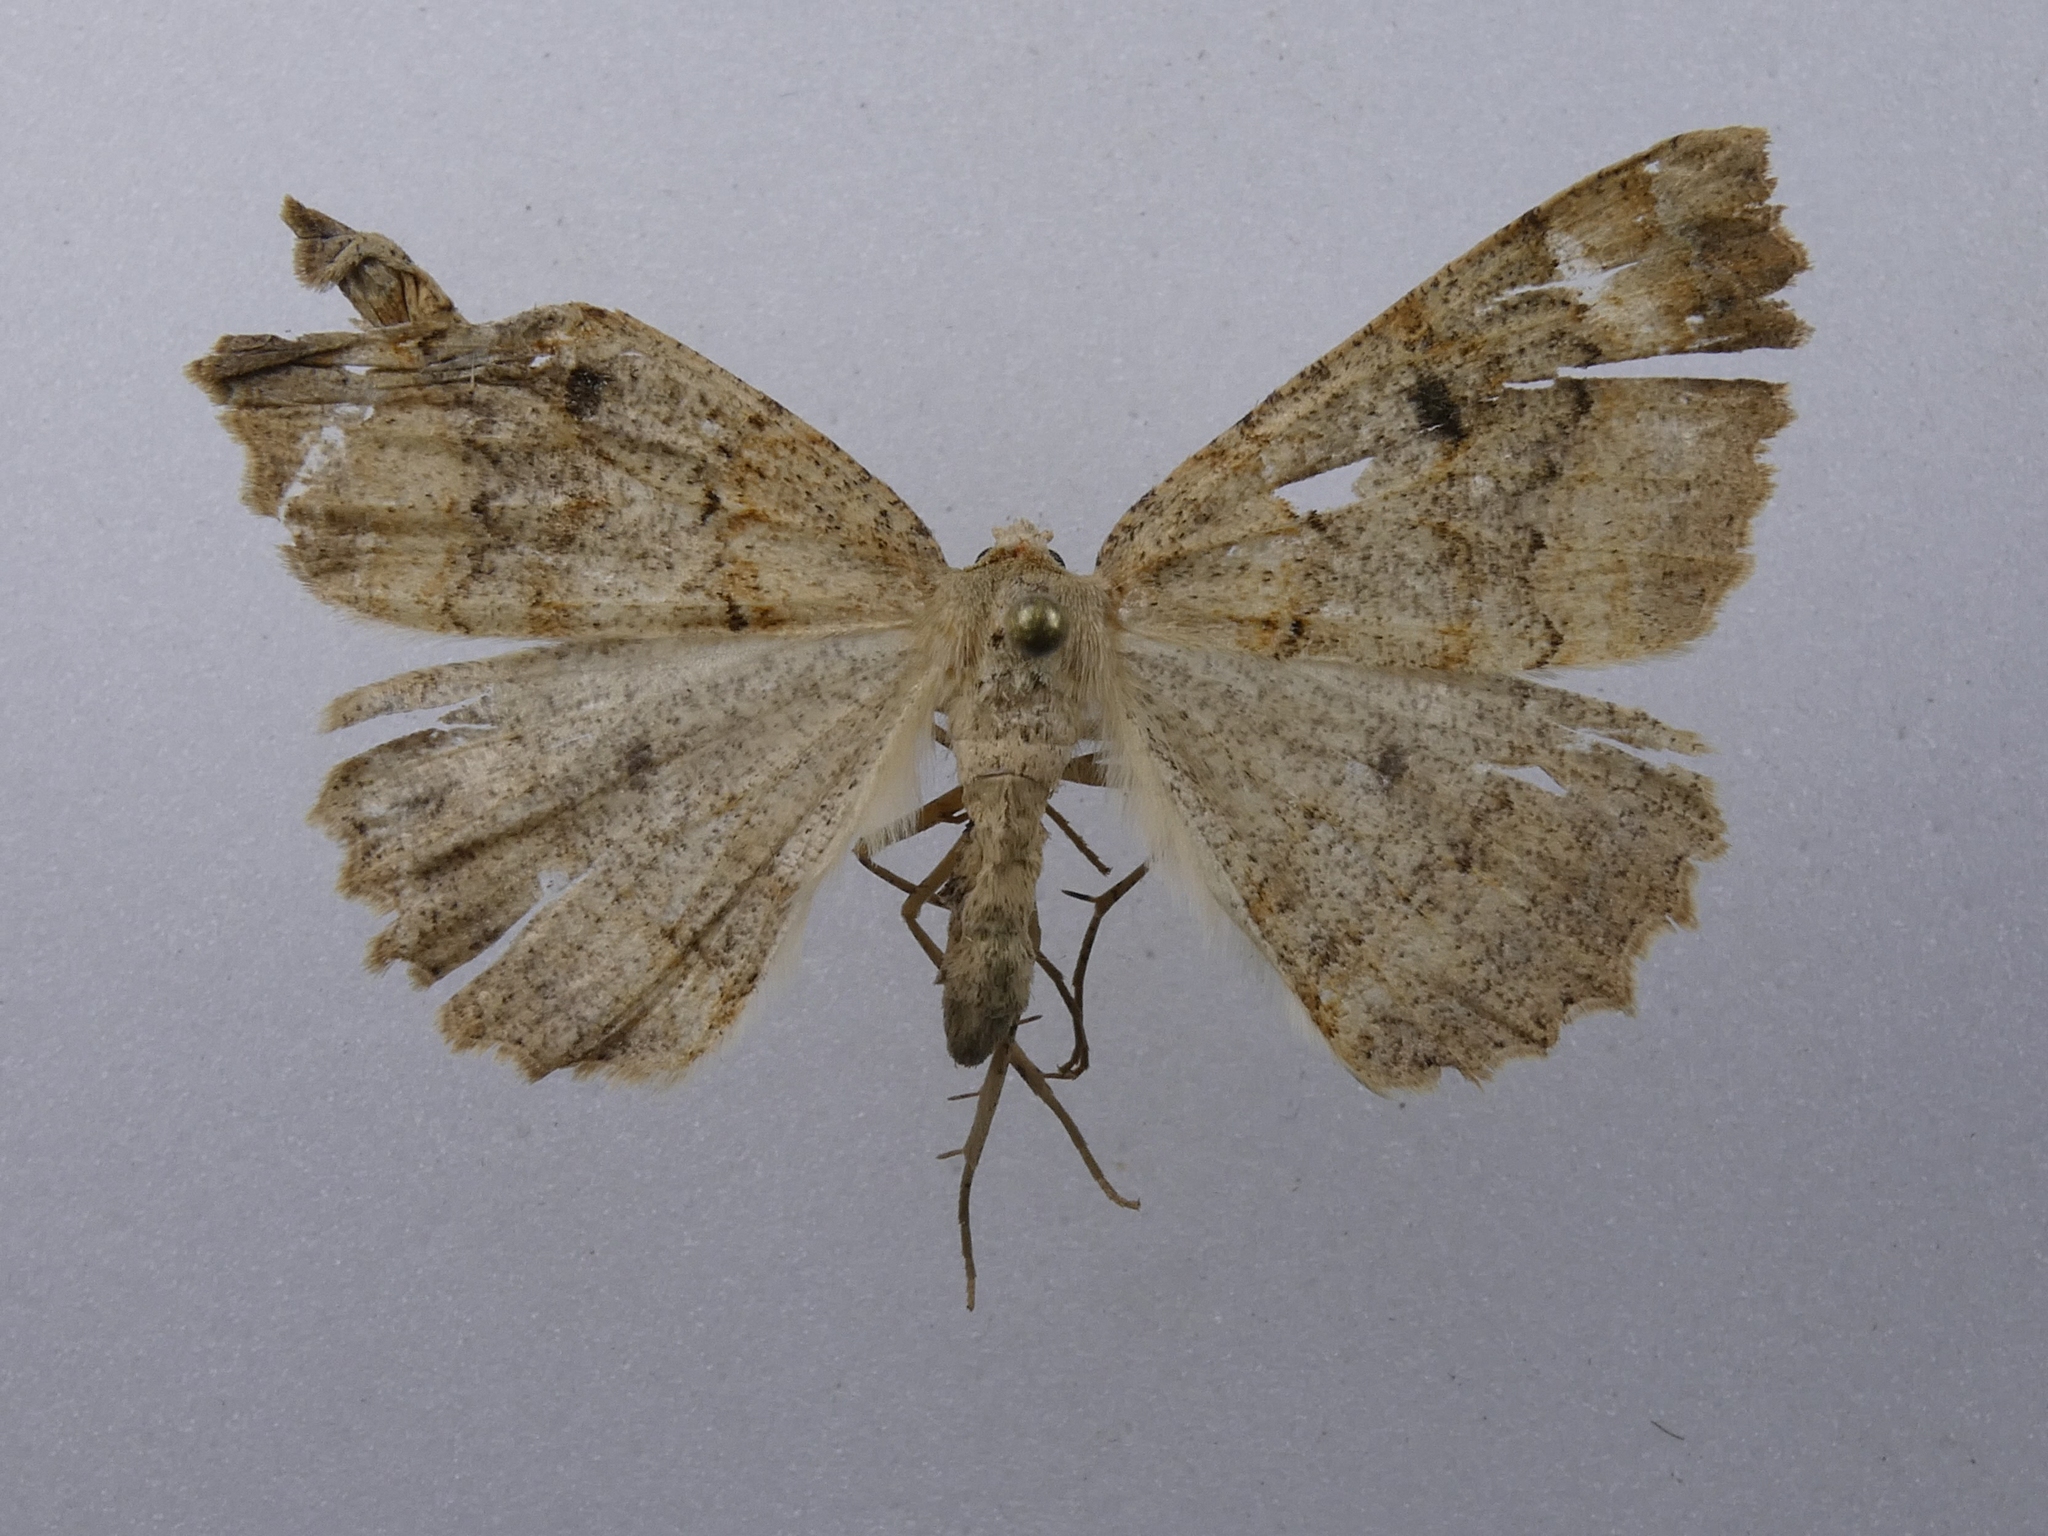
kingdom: Animalia
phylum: Arthropoda
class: Insecta
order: Lepidoptera
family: Geometridae
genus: Cleora
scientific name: Cleora scriptaria
